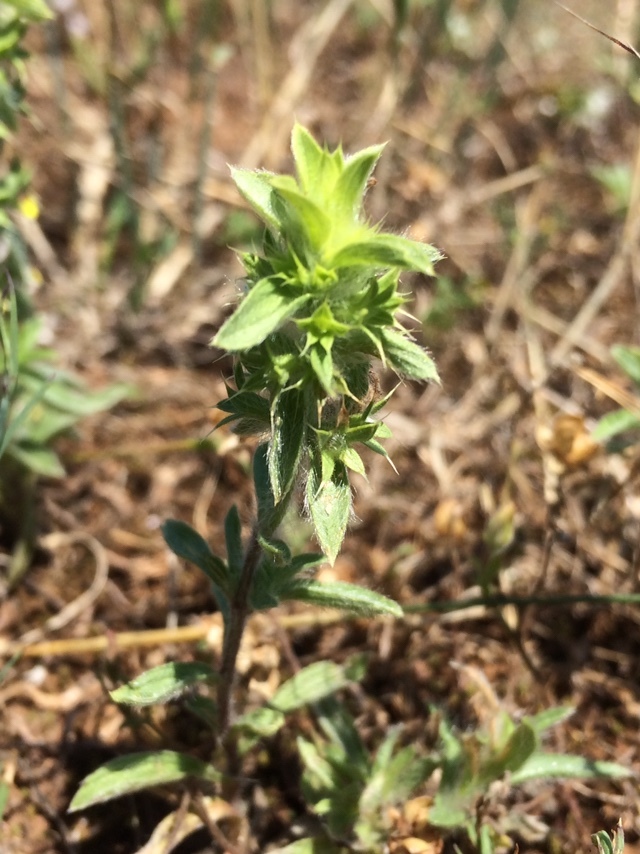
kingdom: Plantae
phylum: Tracheophyta
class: Magnoliopsida
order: Lamiales
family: Lamiaceae
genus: Sideritis
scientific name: Sideritis montana
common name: Mountain ironwort
